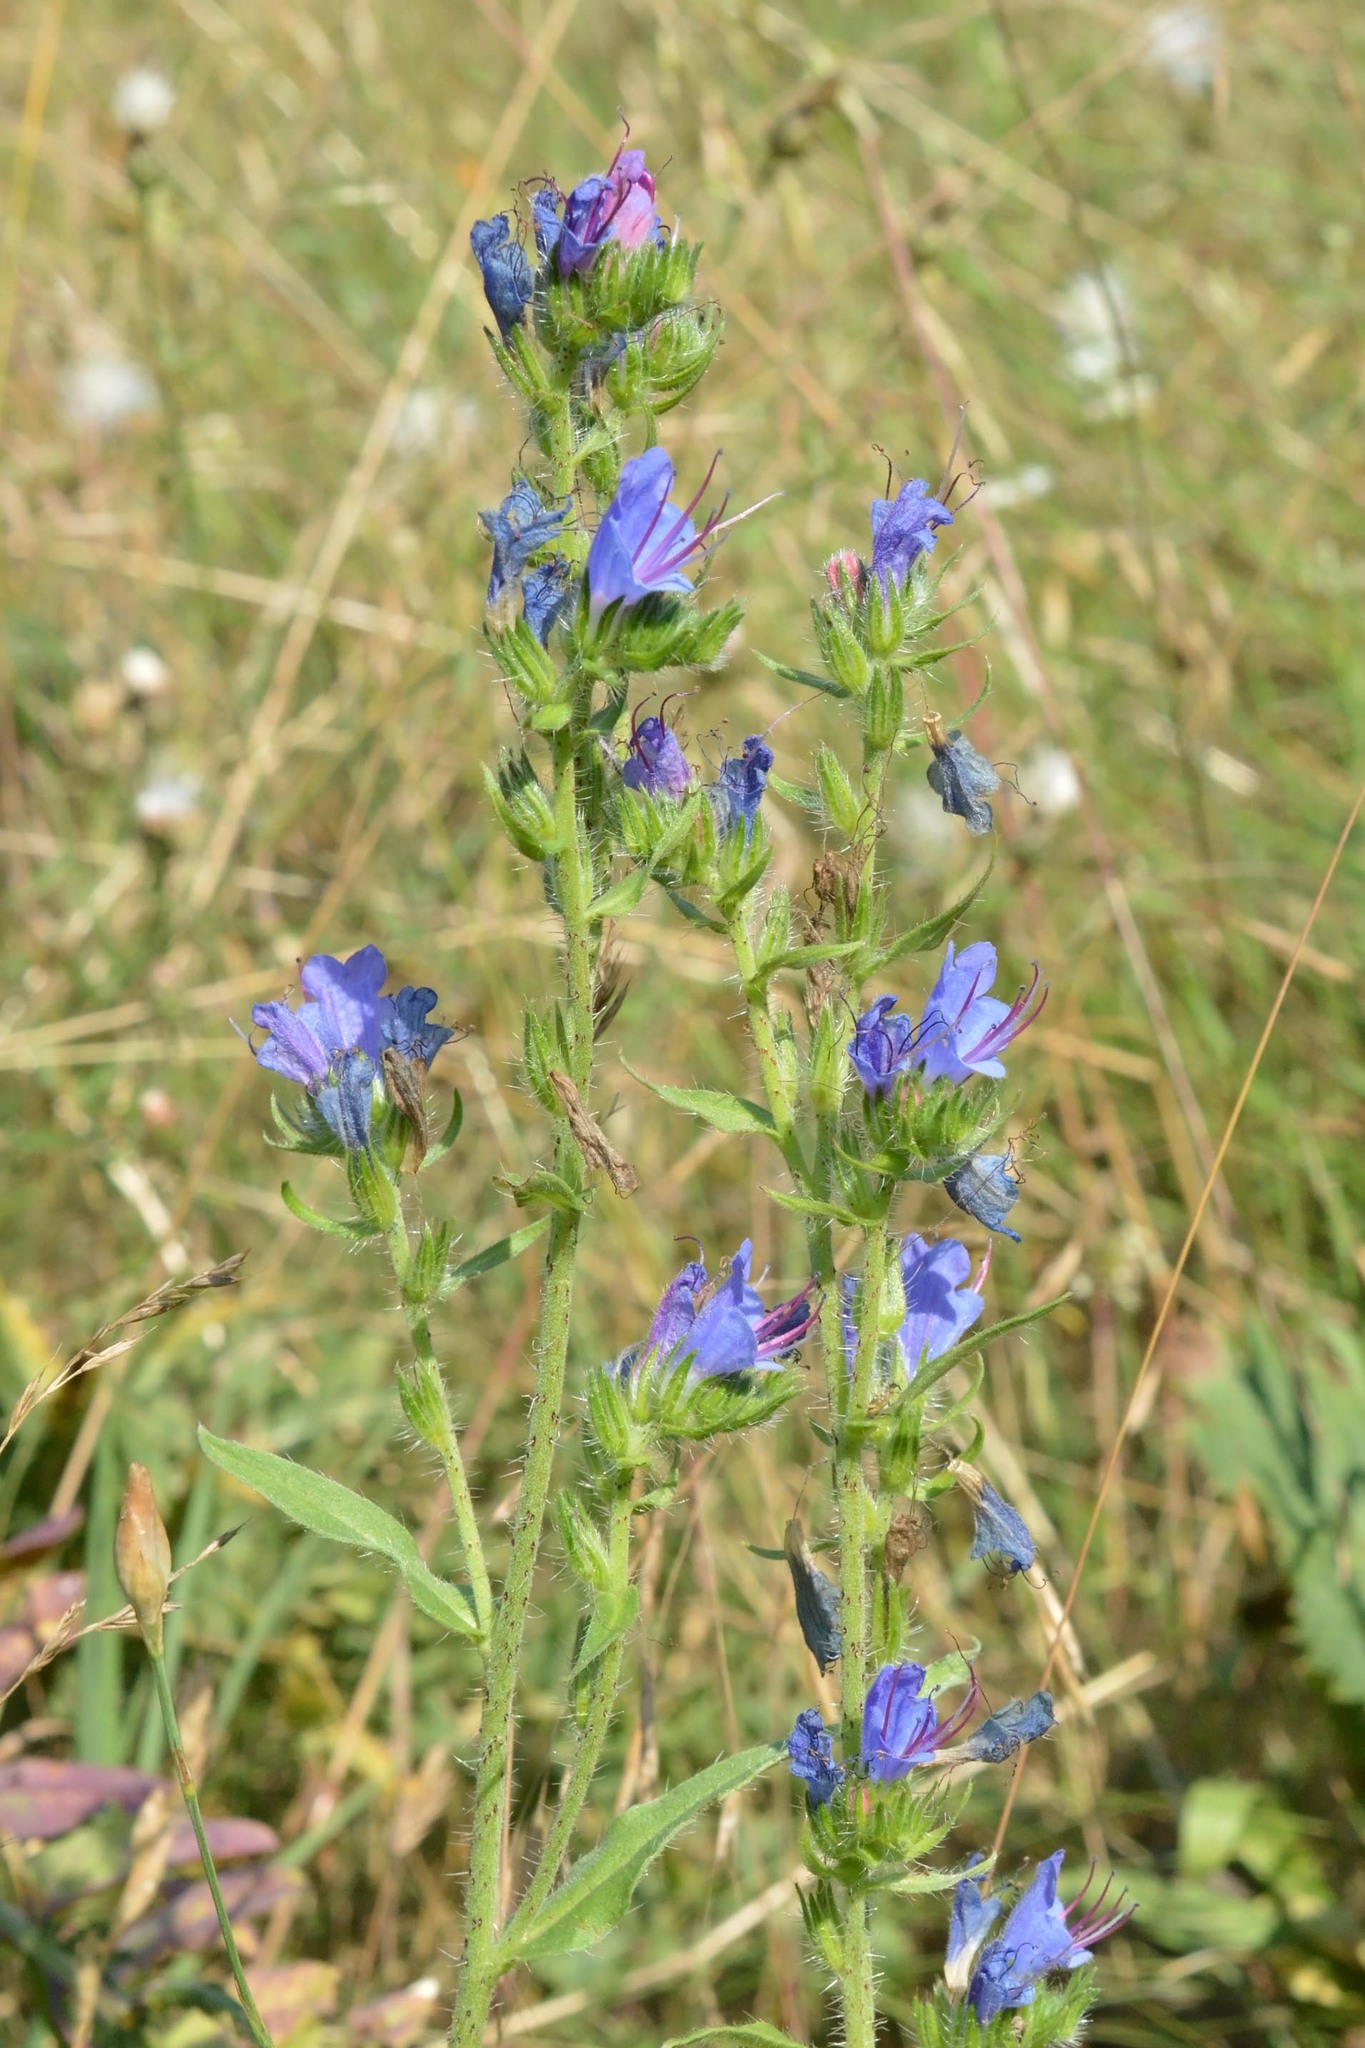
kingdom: Plantae
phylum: Tracheophyta
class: Magnoliopsida
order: Boraginales
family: Boraginaceae
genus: Echium
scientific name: Echium vulgare
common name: Common viper's bugloss
